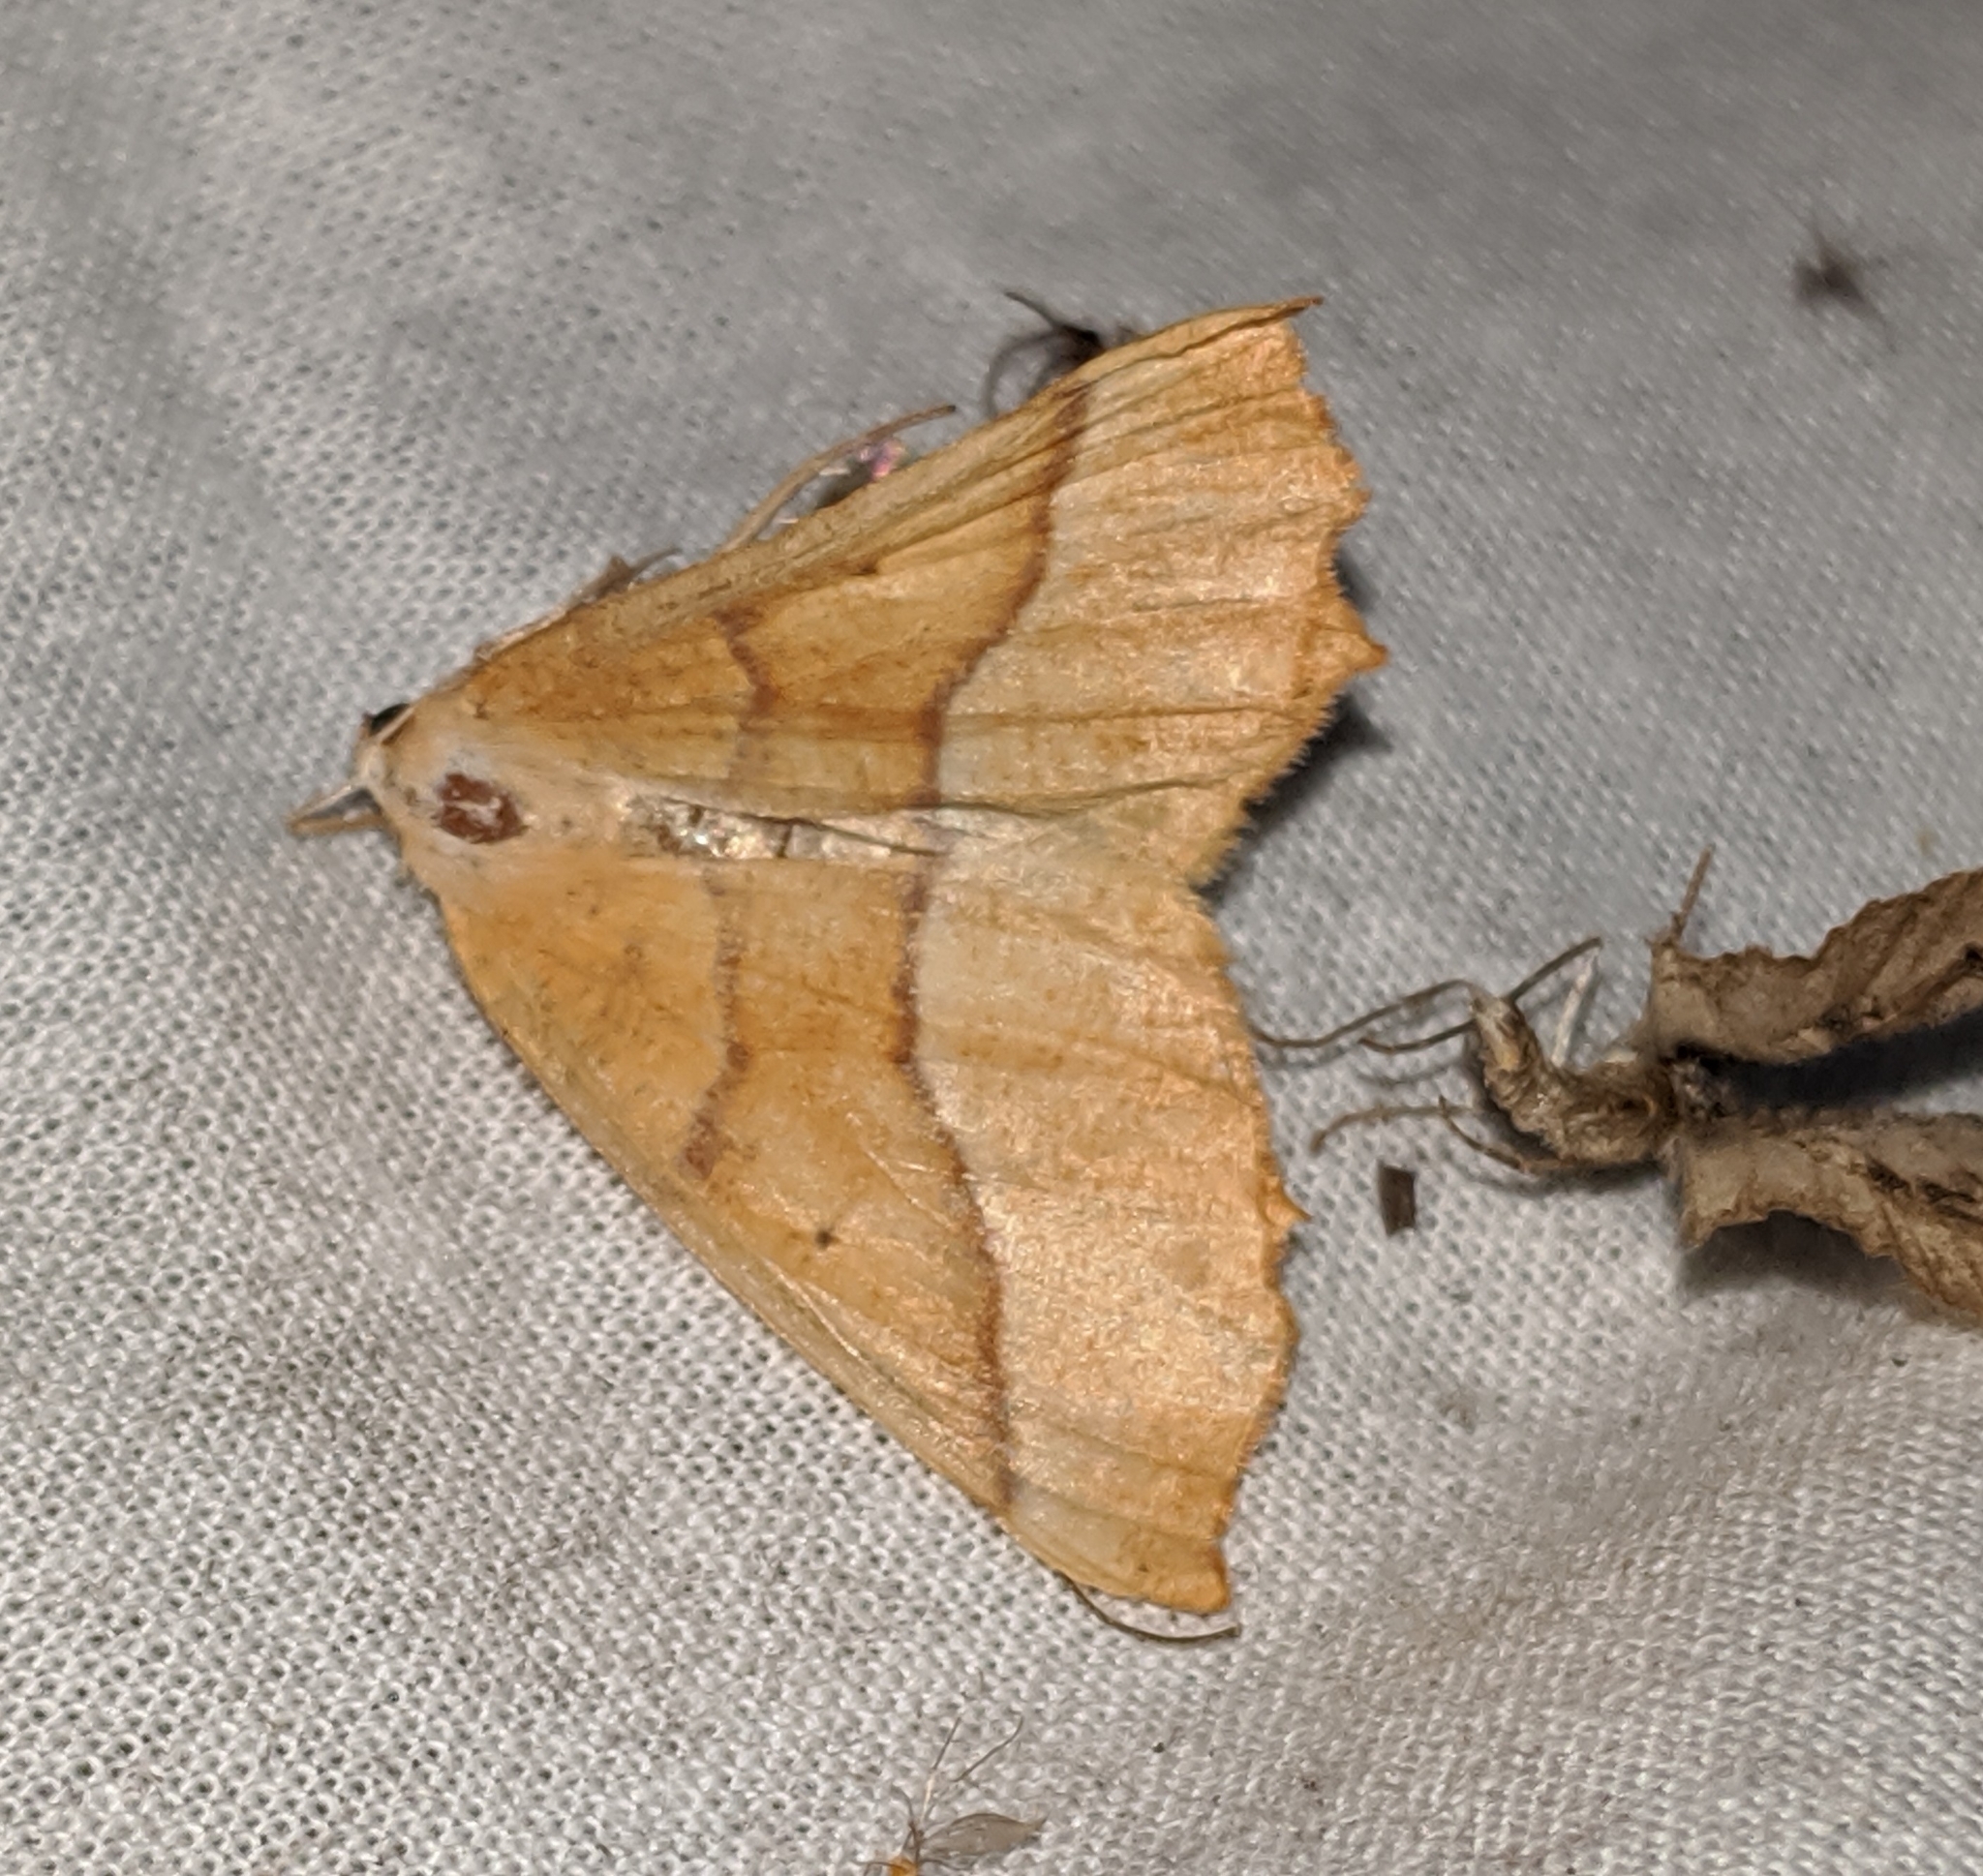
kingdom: Animalia
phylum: Arthropoda
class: Insecta
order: Lepidoptera
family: Geometridae
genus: Synaxis
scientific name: Synaxis jubararia
